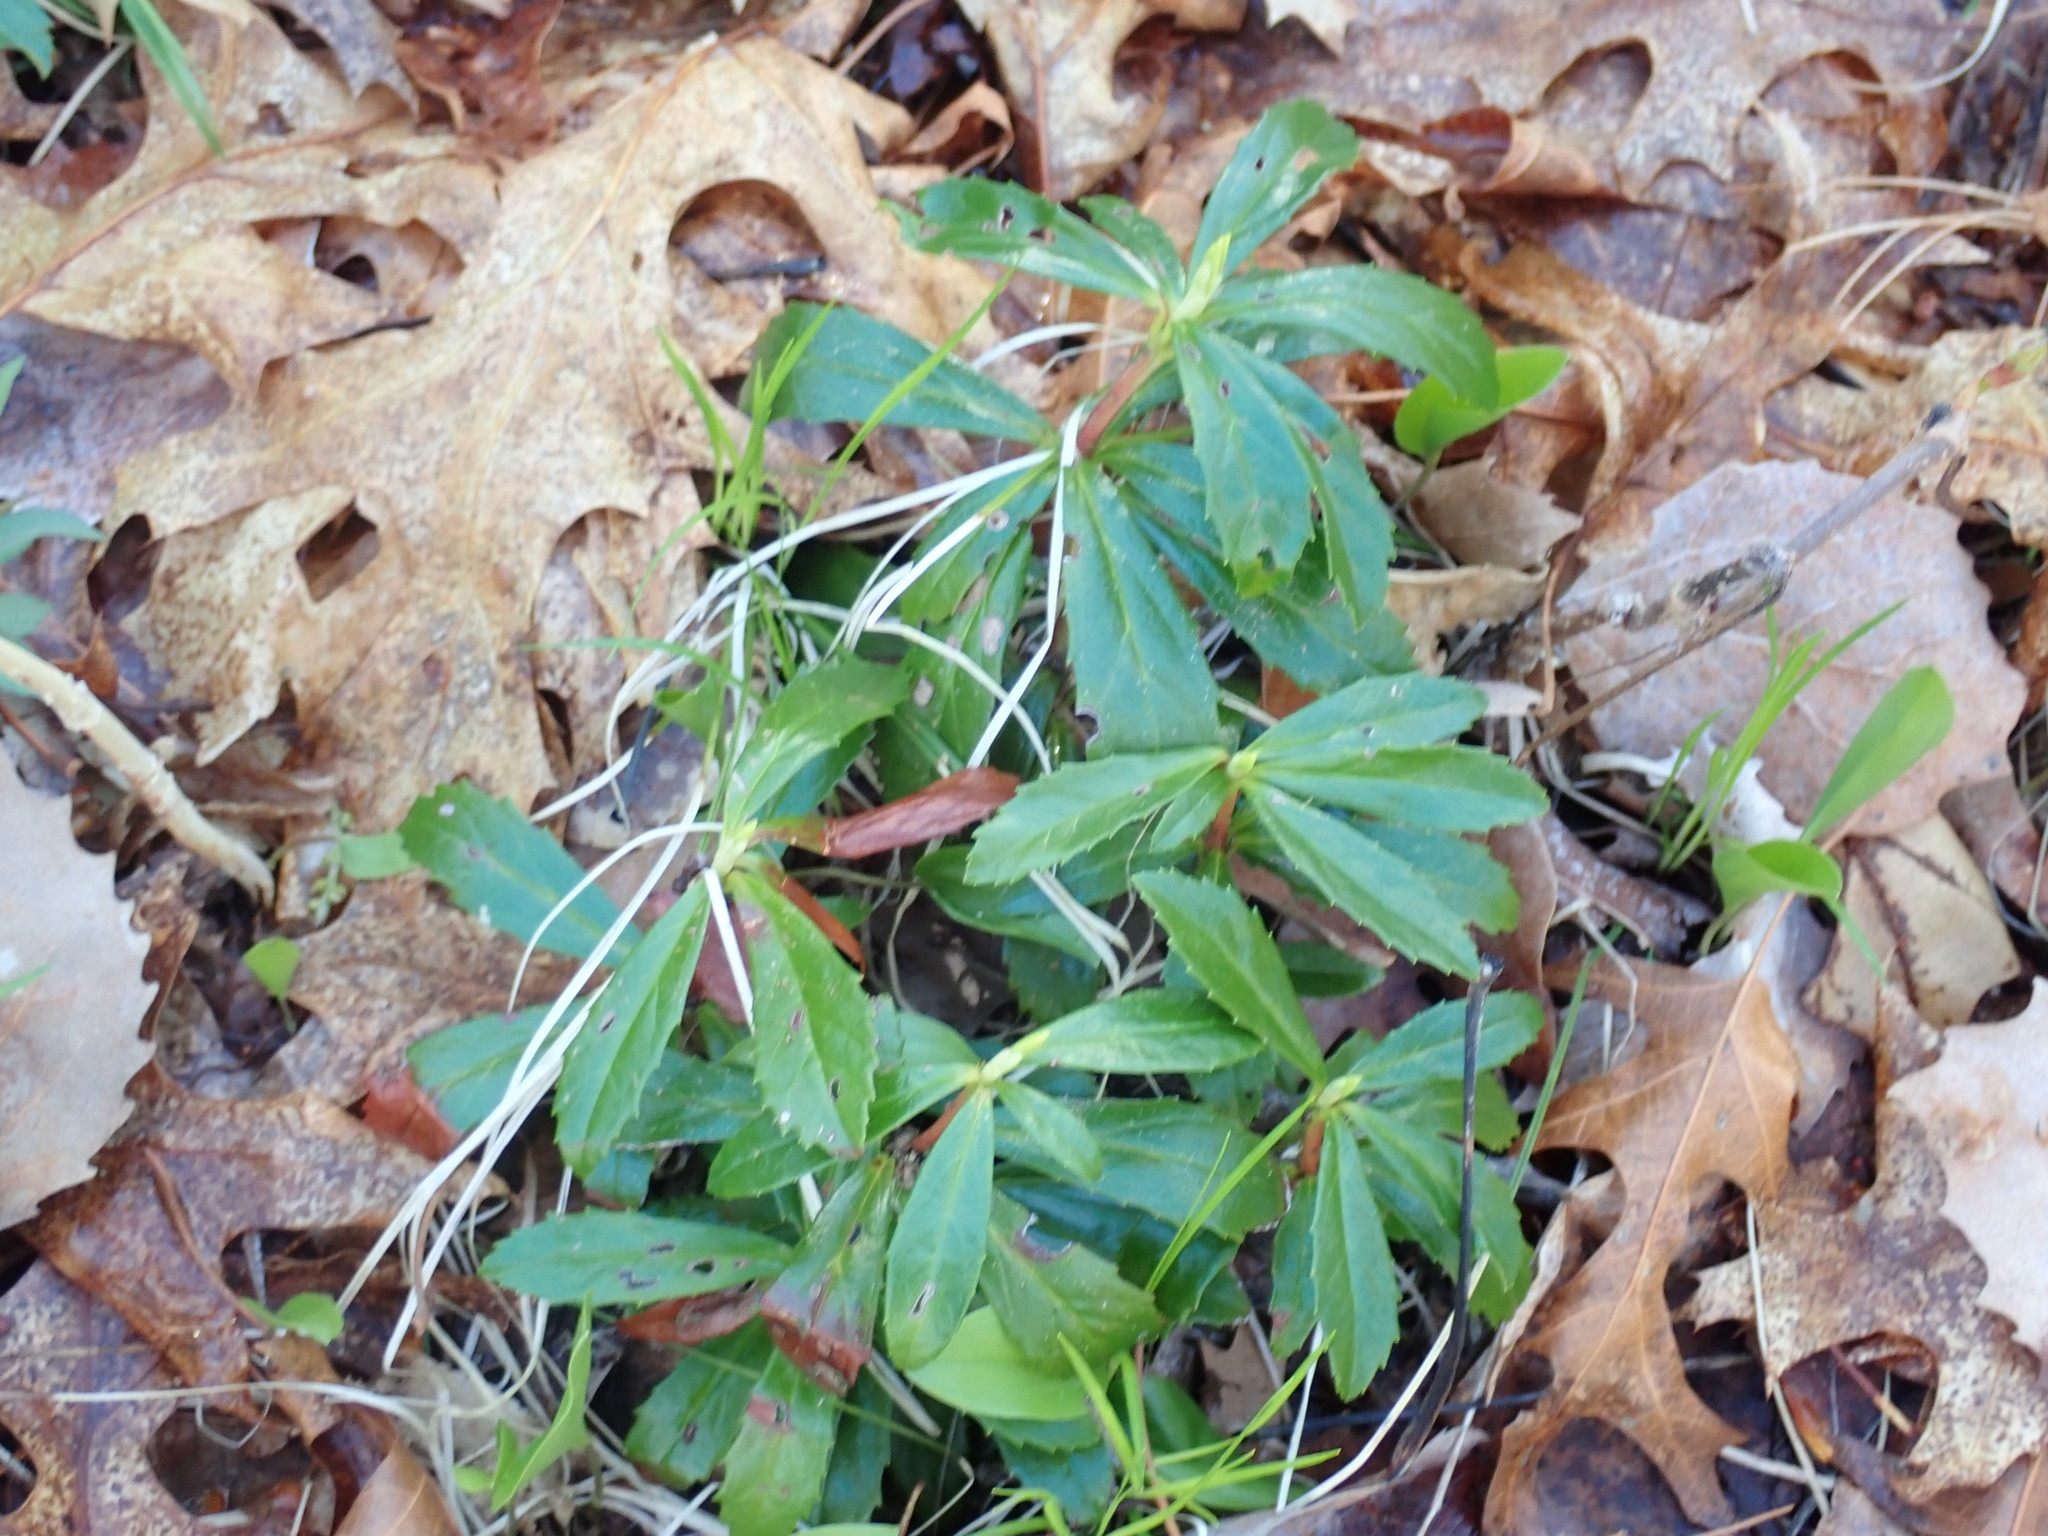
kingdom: Plantae
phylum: Tracheophyta
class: Magnoliopsida
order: Ericales
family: Ericaceae
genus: Chimaphila
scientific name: Chimaphila umbellata
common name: Pipsissewa
